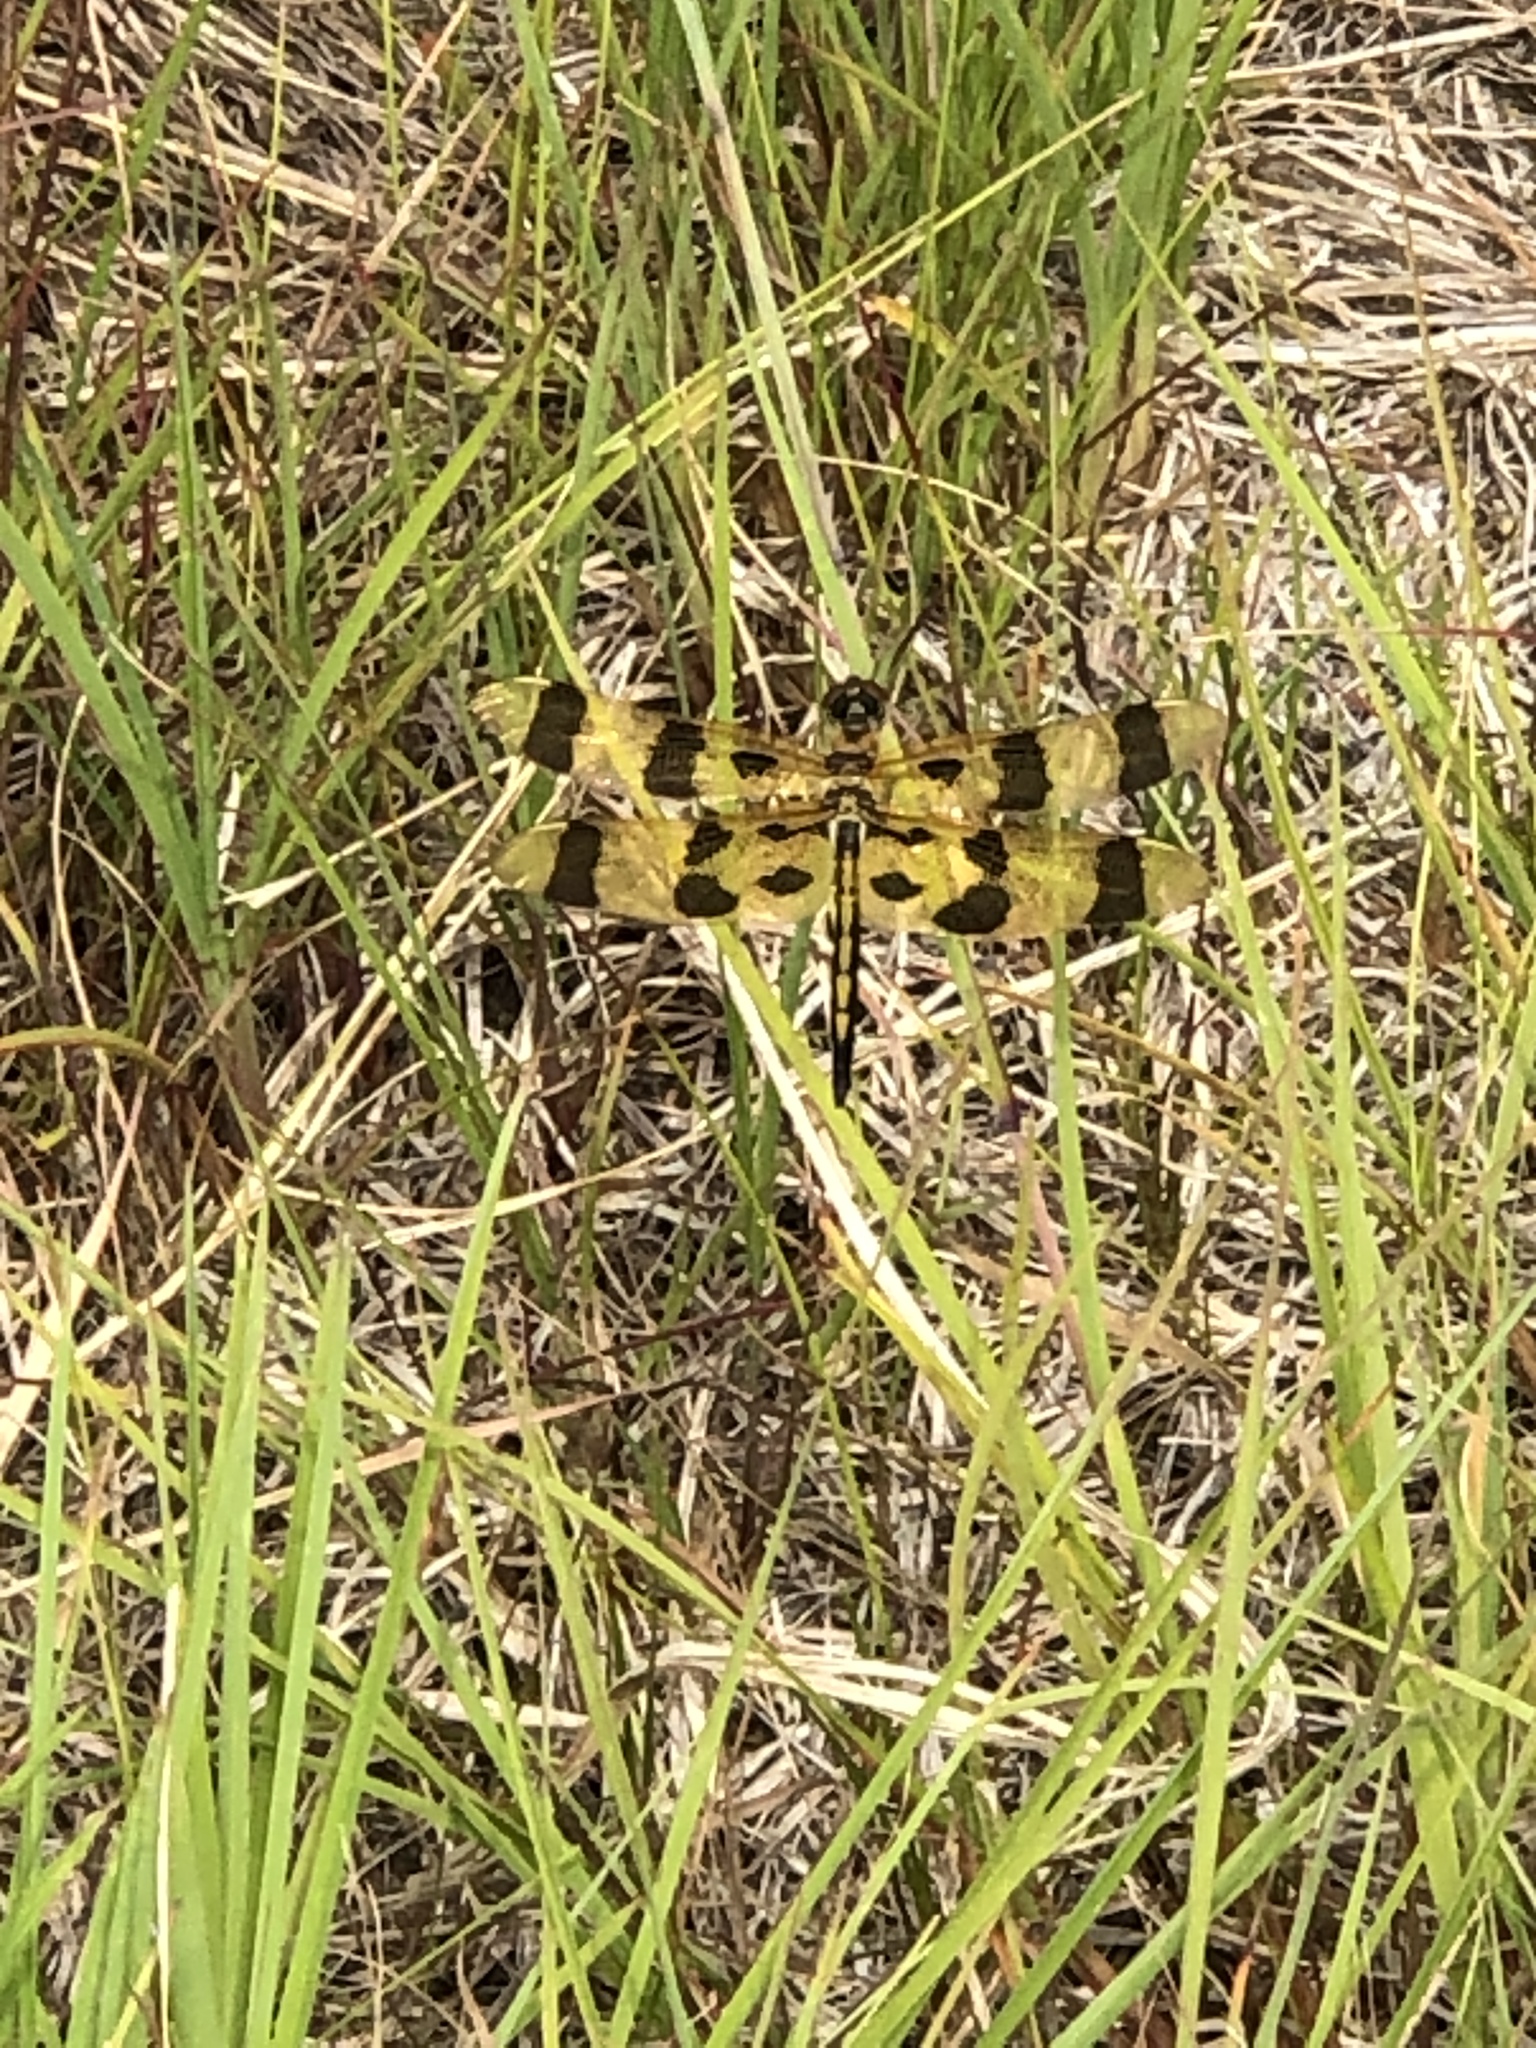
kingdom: Animalia
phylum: Arthropoda
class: Insecta
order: Odonata
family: Libellulidae
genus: Celithemis
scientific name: Celithemis eponina
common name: Halloween pennant
